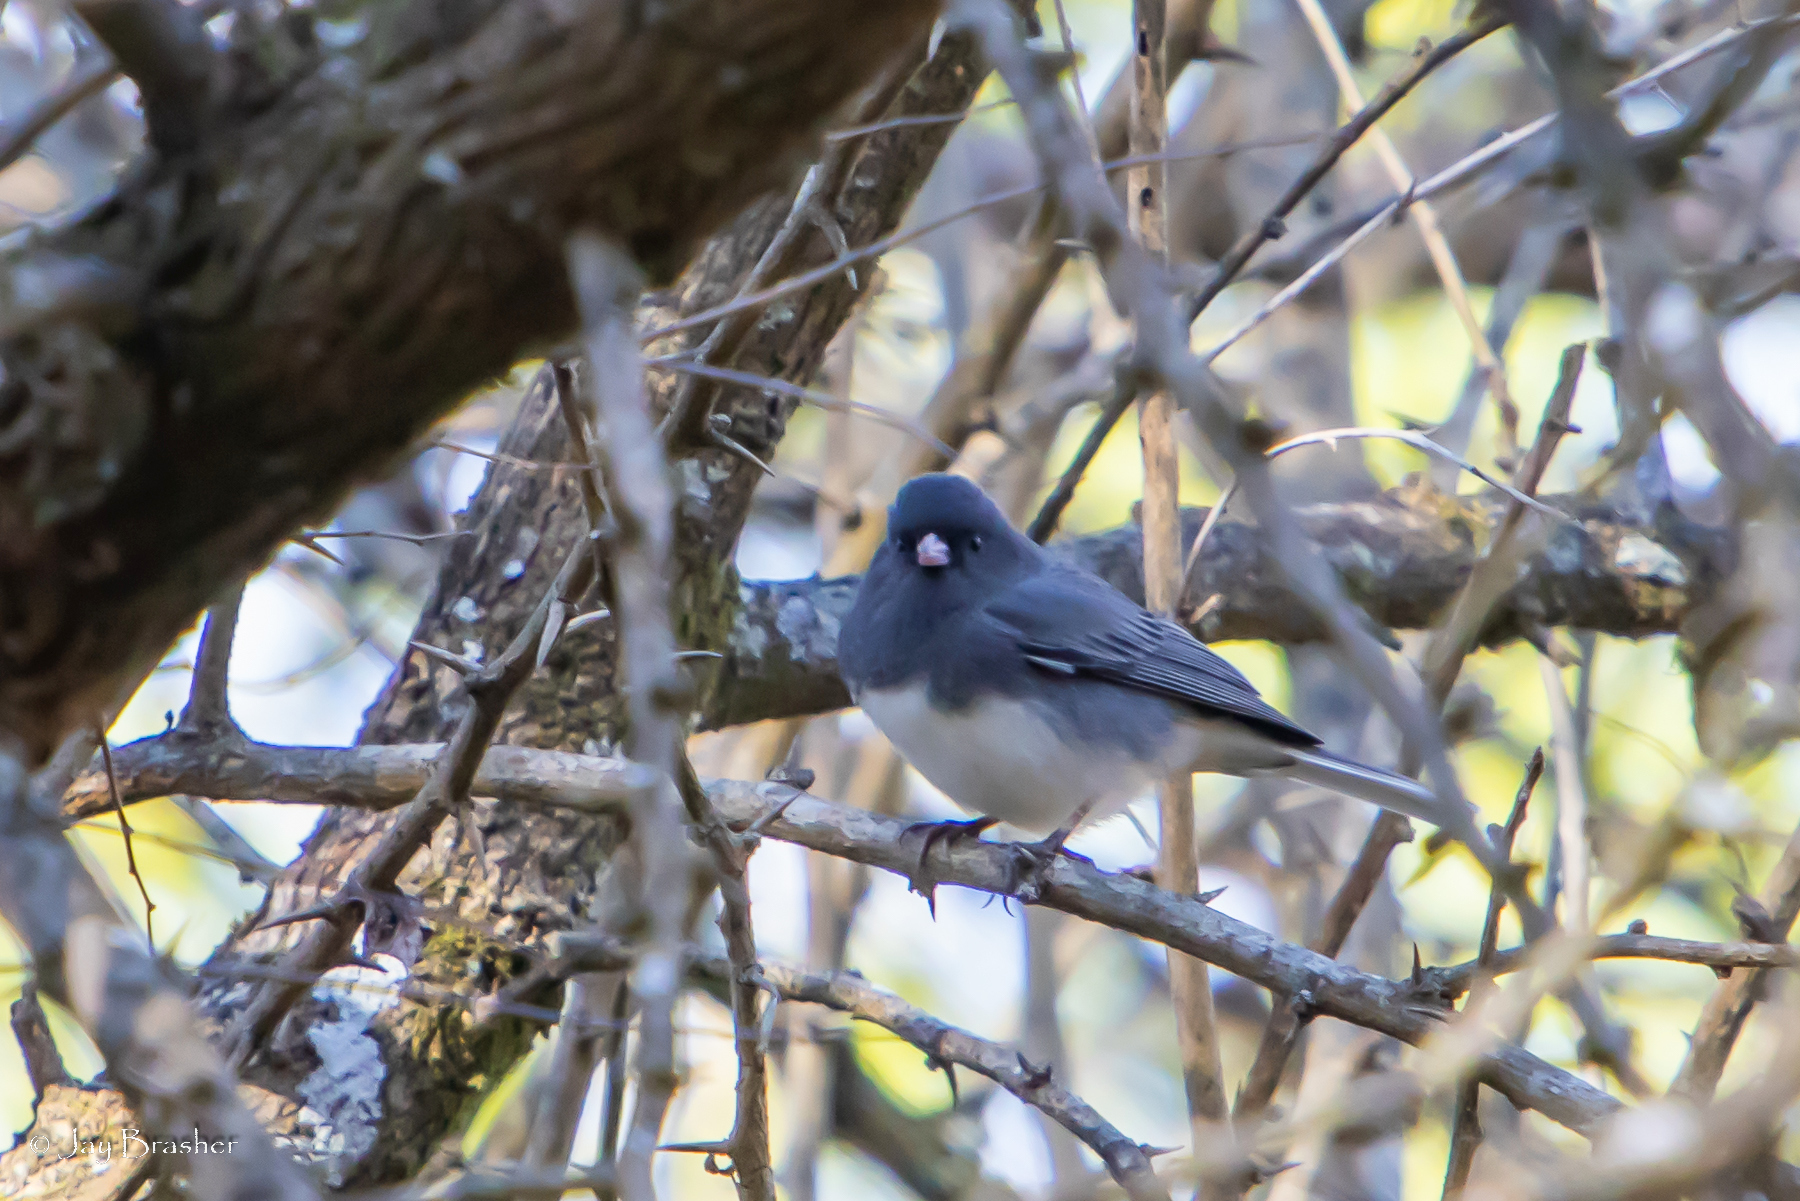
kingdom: Animalia
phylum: Chordata
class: Aves
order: Passeriformes
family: Passerellidae
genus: Junco
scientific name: Junco hyemalis
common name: Dark-eyed junco
